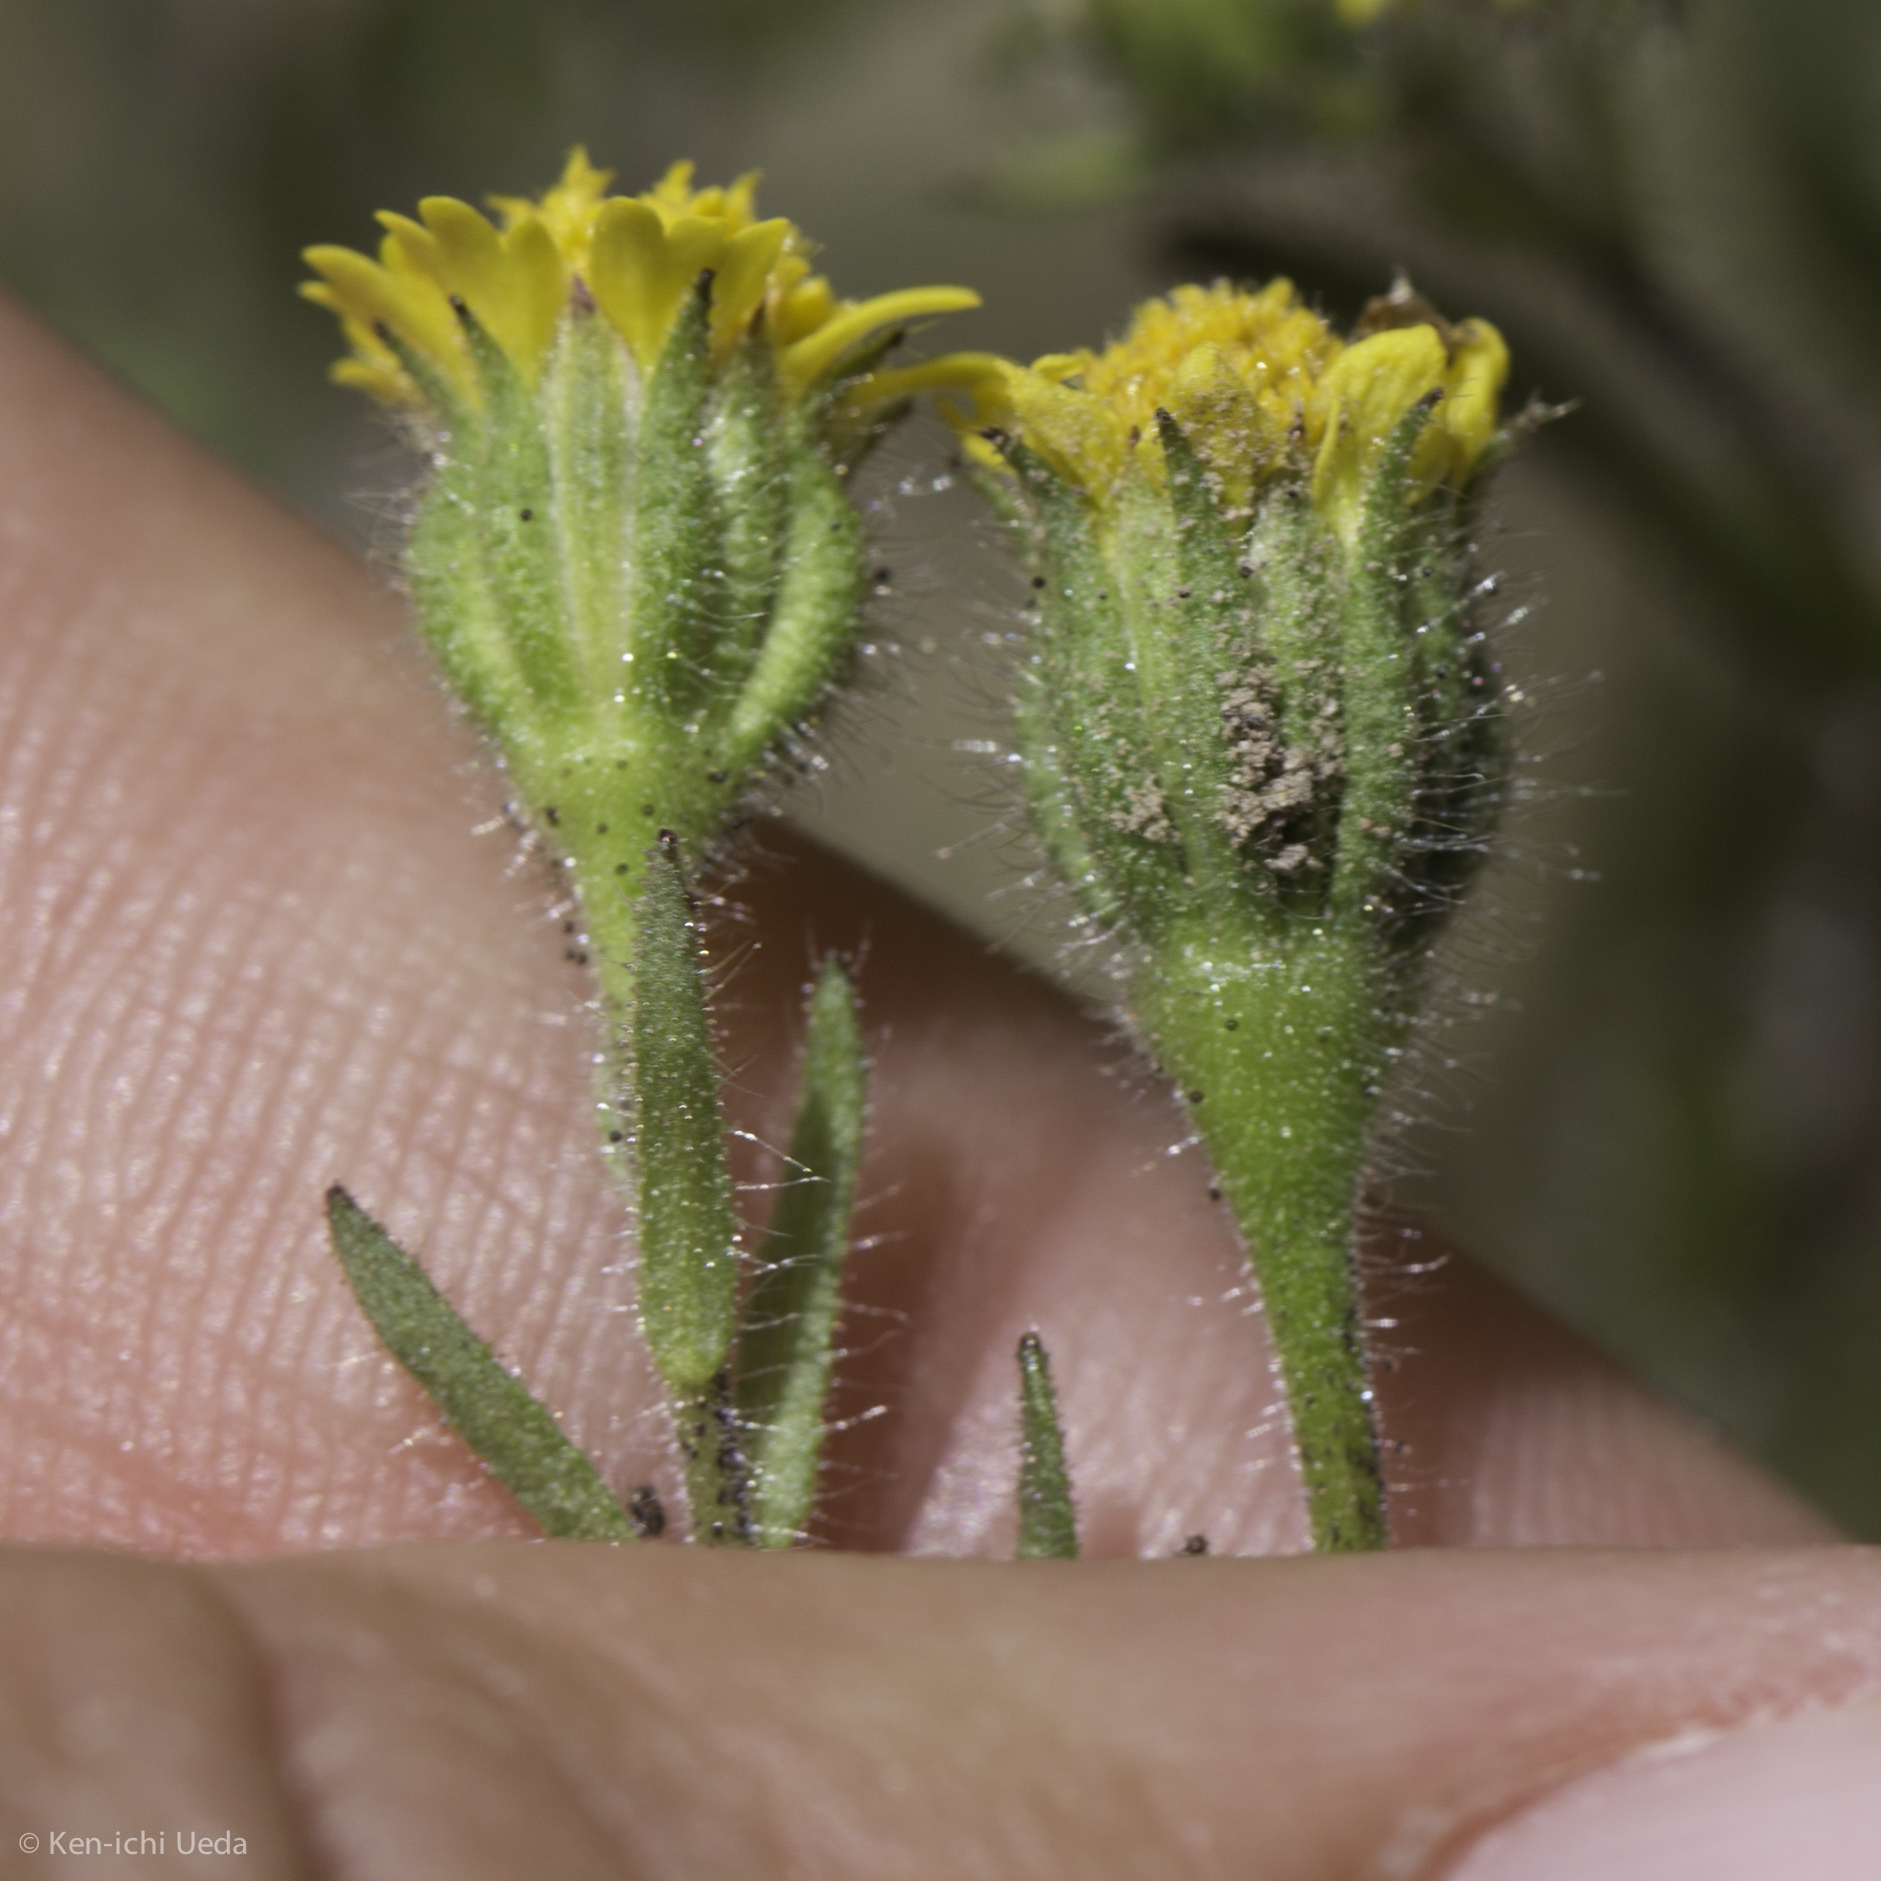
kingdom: Plantae
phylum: Tracheophyta
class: Magnoliopsida
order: Asterales
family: Asteraceae
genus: Layia
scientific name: Layia hieracioides
